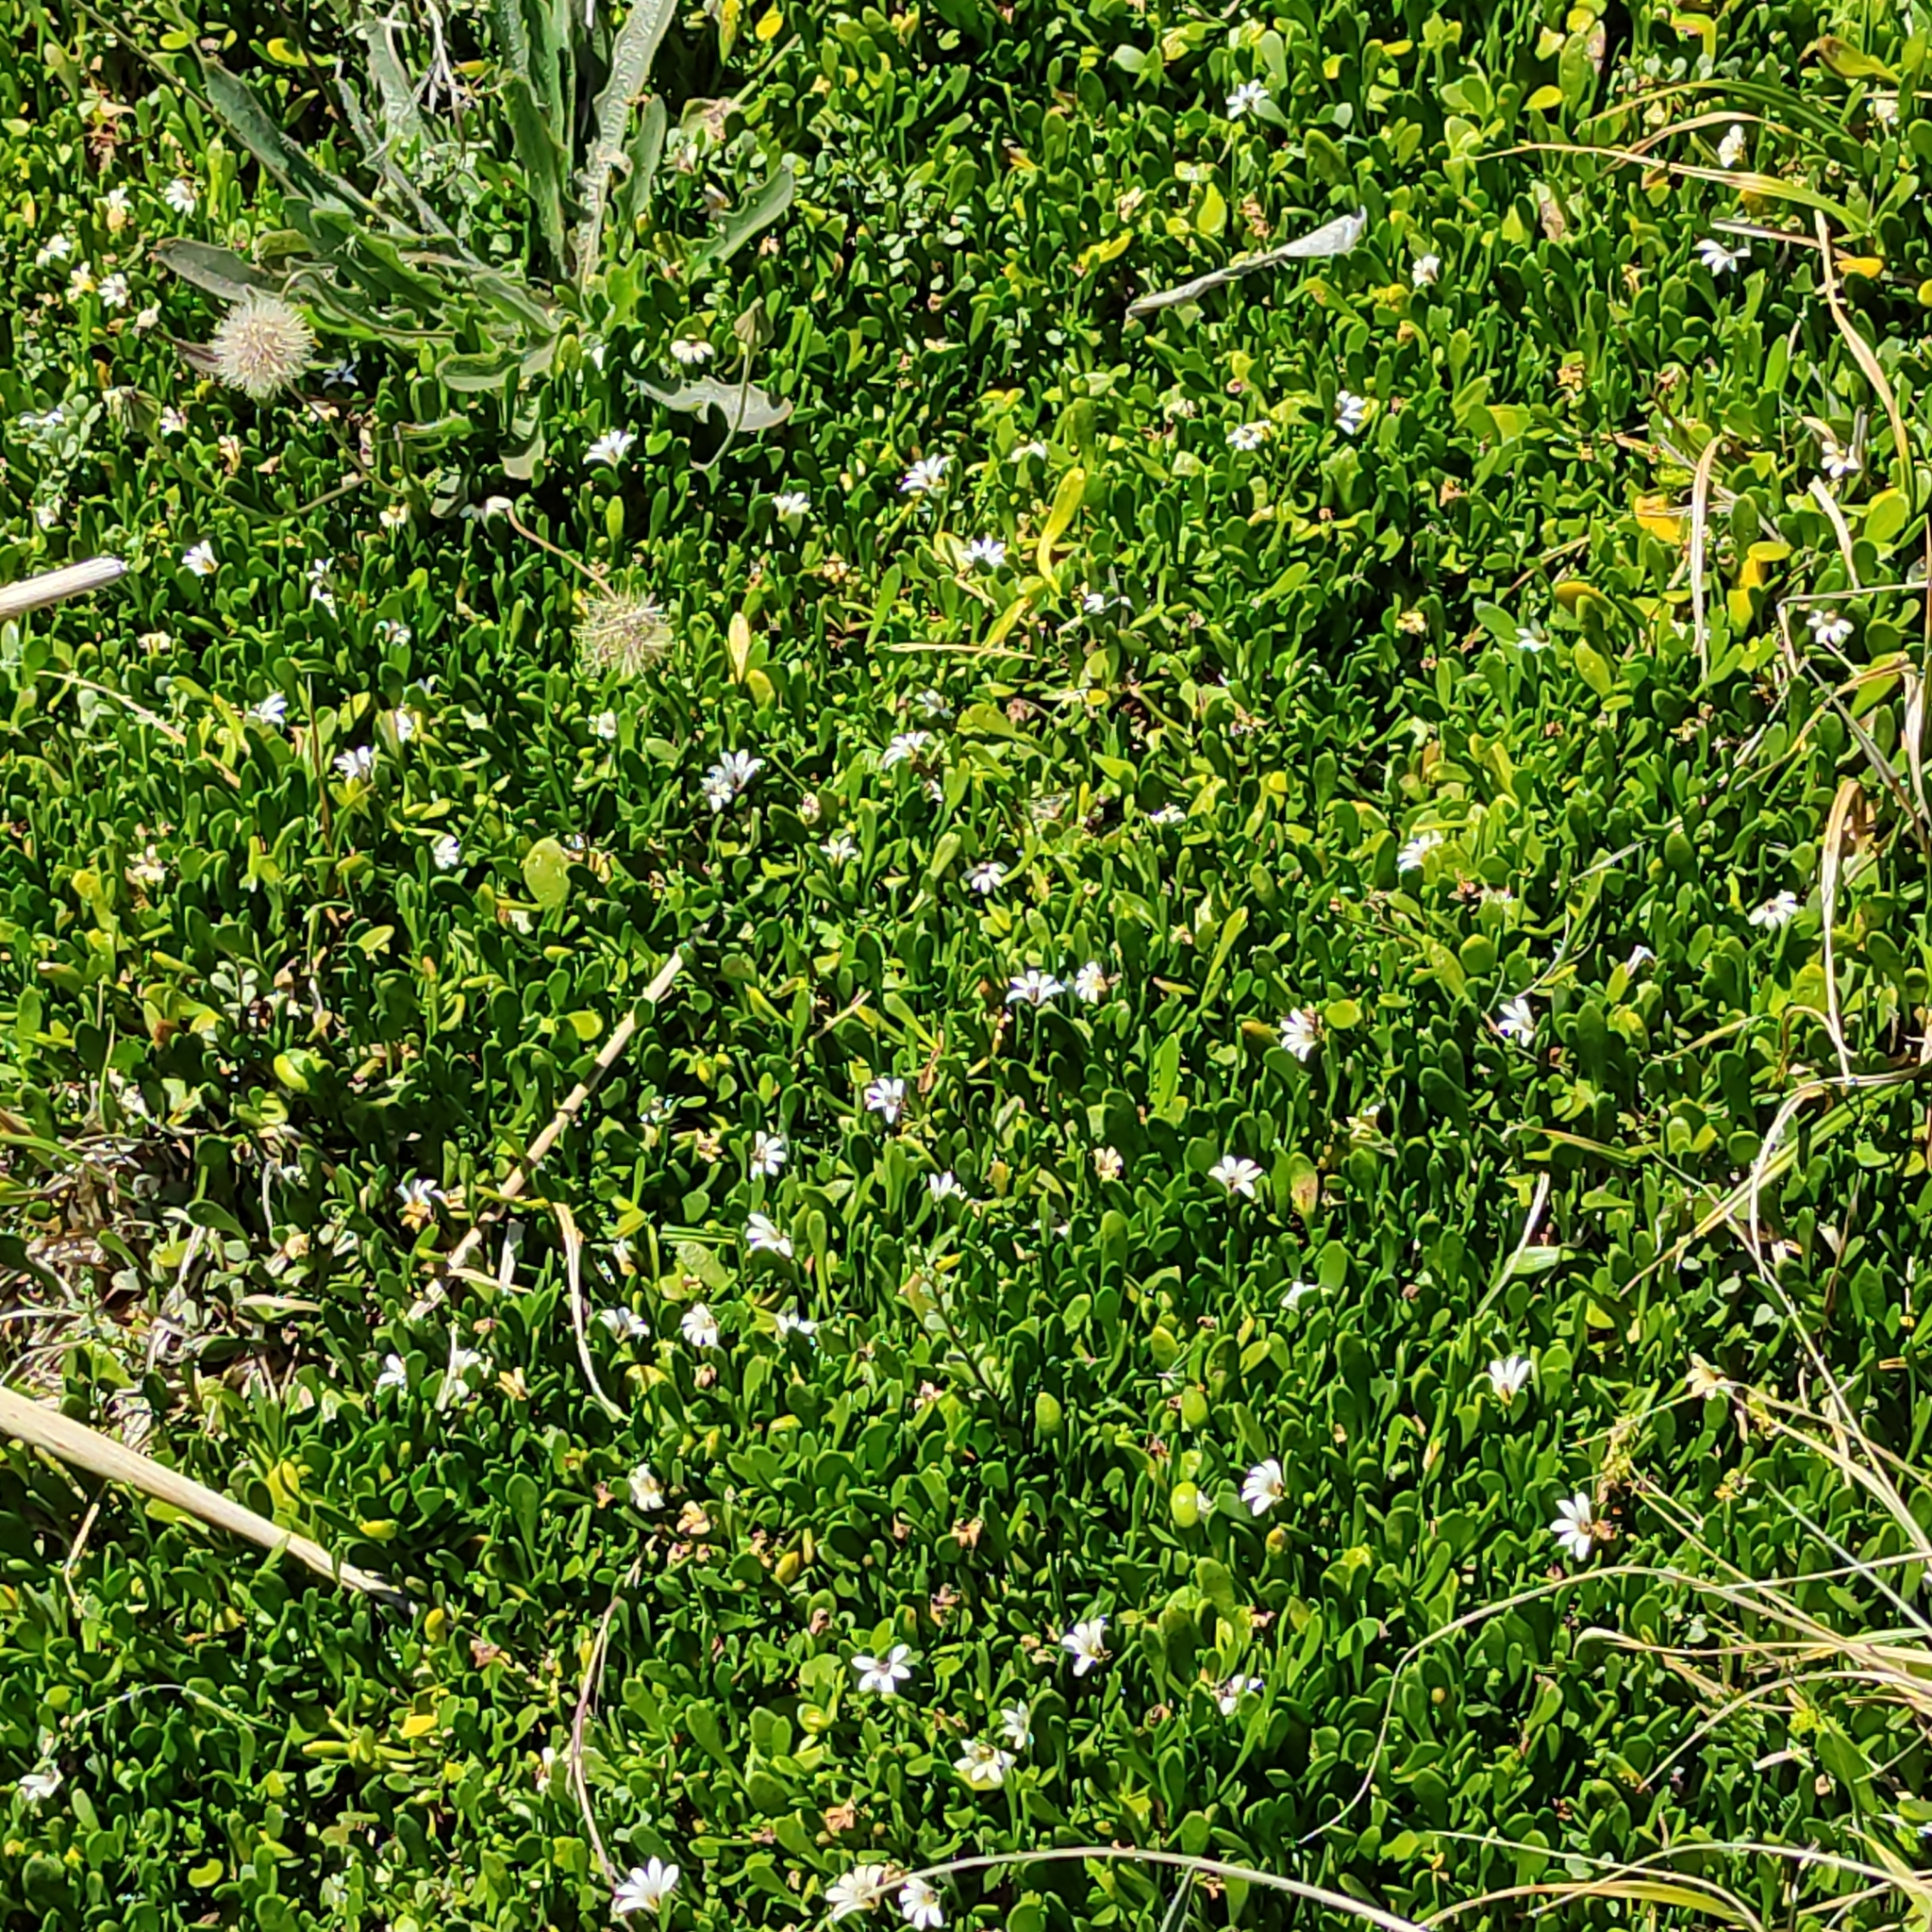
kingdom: Plantae
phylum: Tracheophyta
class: Magnoliopsida
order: Asterales
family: Goodeniaceae
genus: Goodenia
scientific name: Goodenia radicans
